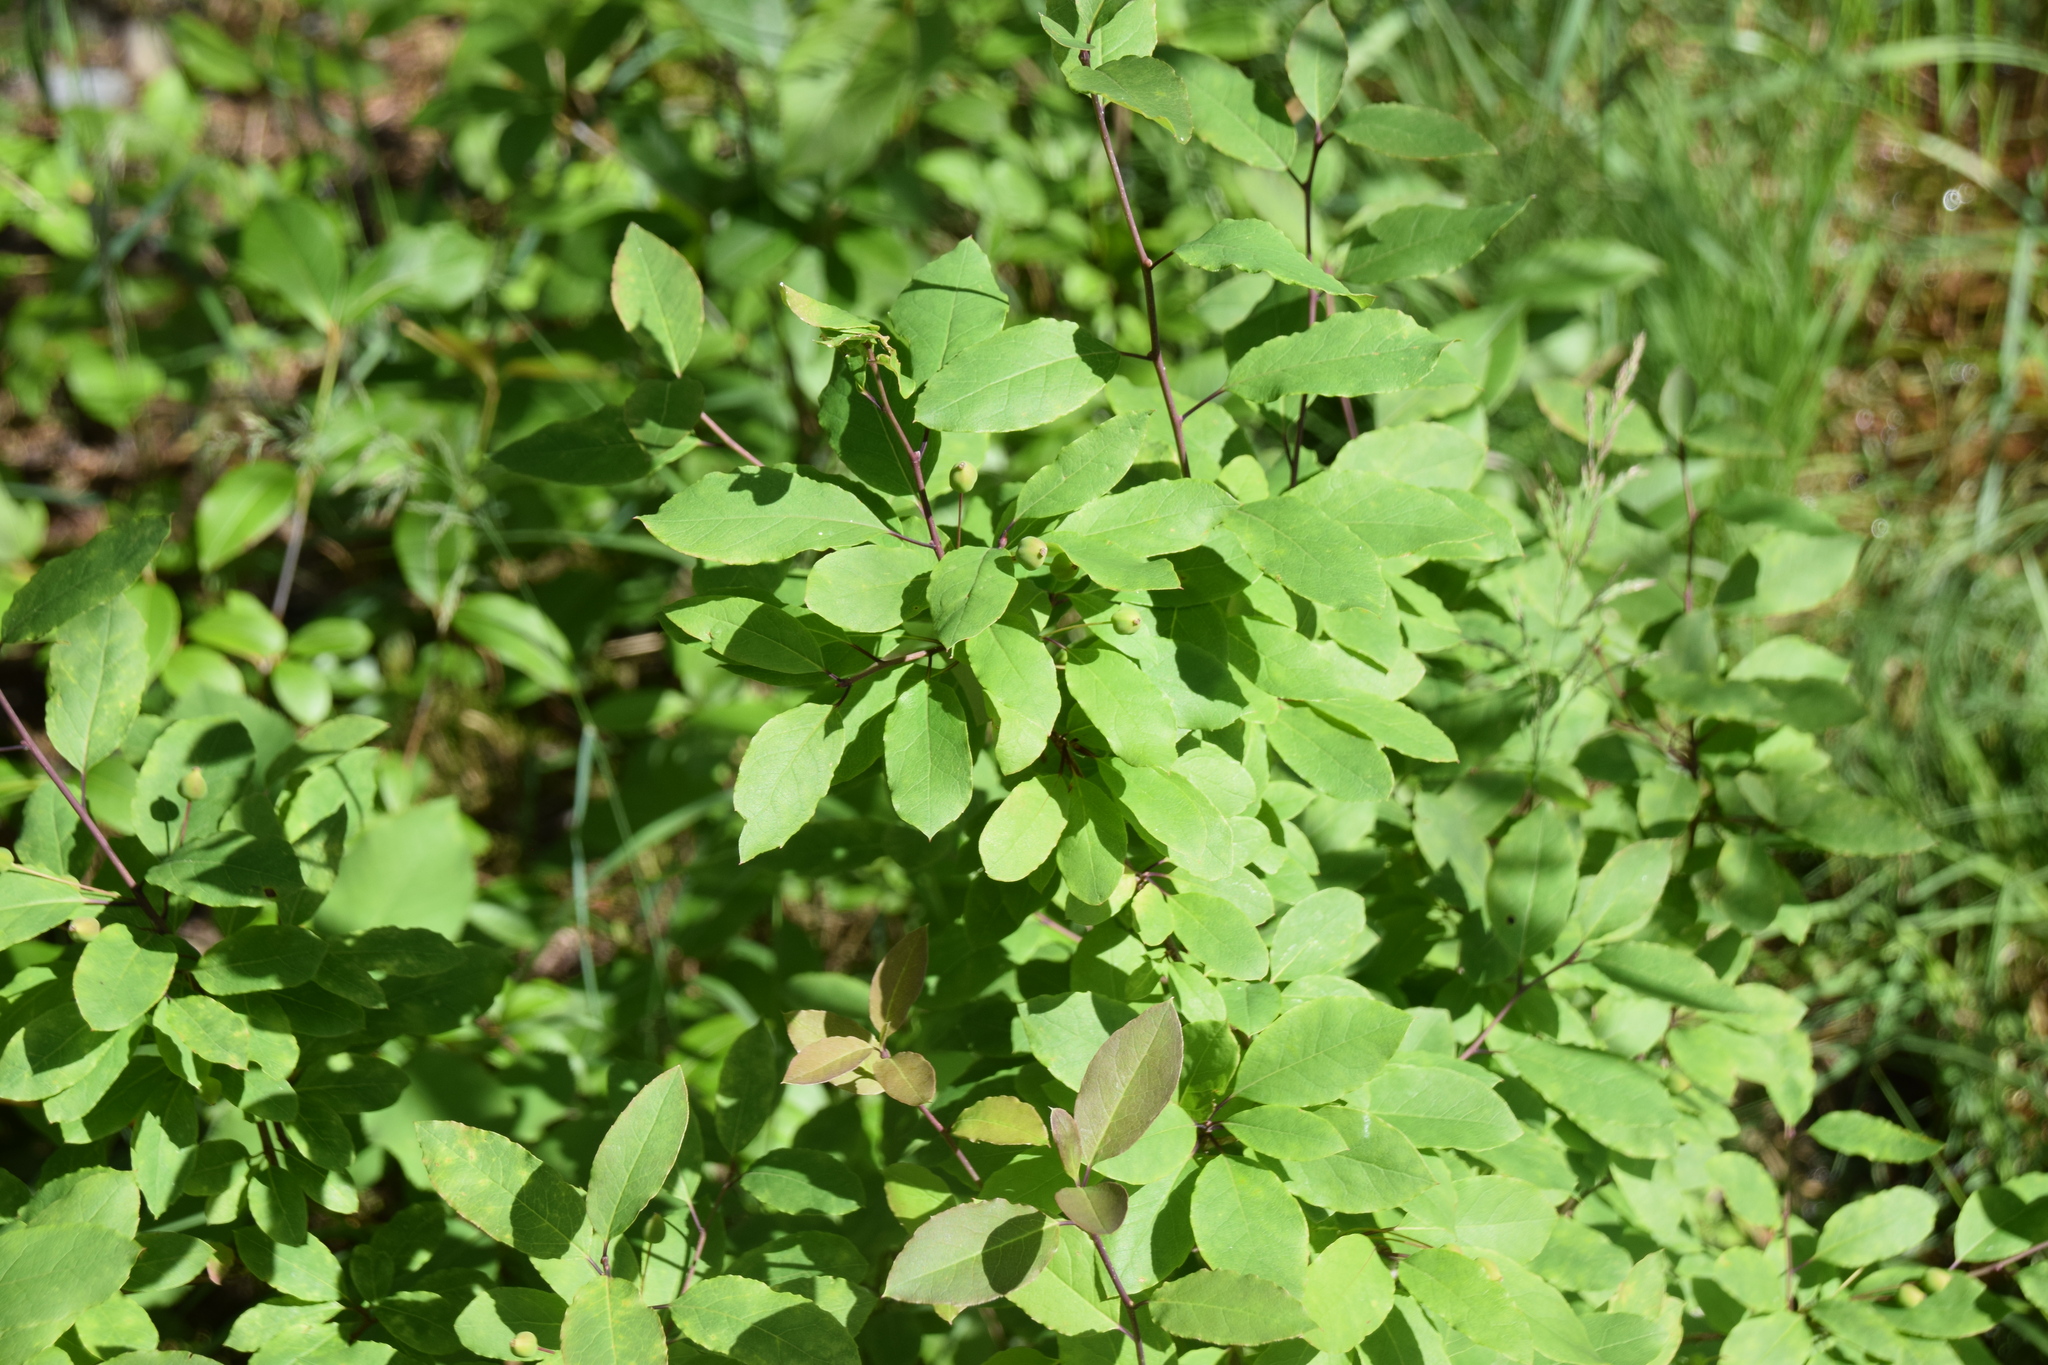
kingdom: Plantae
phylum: Tracheophyta
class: Magnoliopsida
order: Aquifoliales
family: Aquifoliaceae
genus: Ilex
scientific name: Ilex mucronata
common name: Catberry
